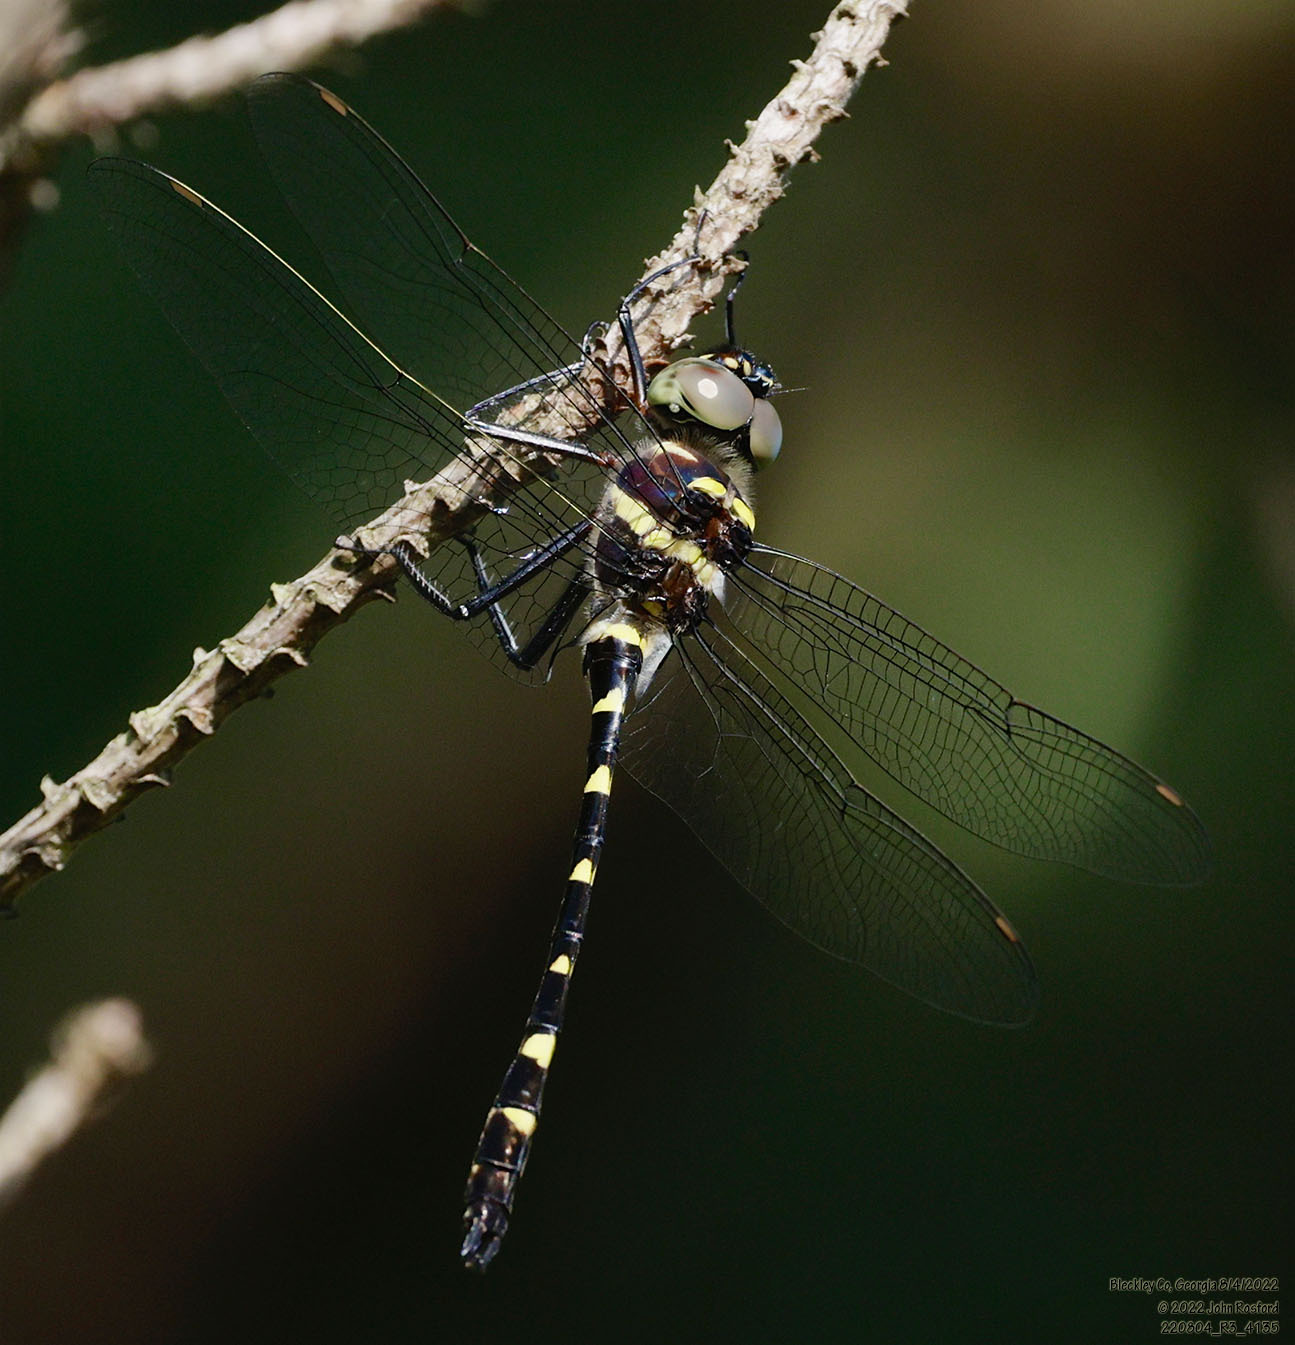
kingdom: Animalia
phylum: Arthropoda
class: Insecta
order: Odonata
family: Macromiidae
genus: Macromia
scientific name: Macromia illinoiensis
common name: Swift river cruiser
